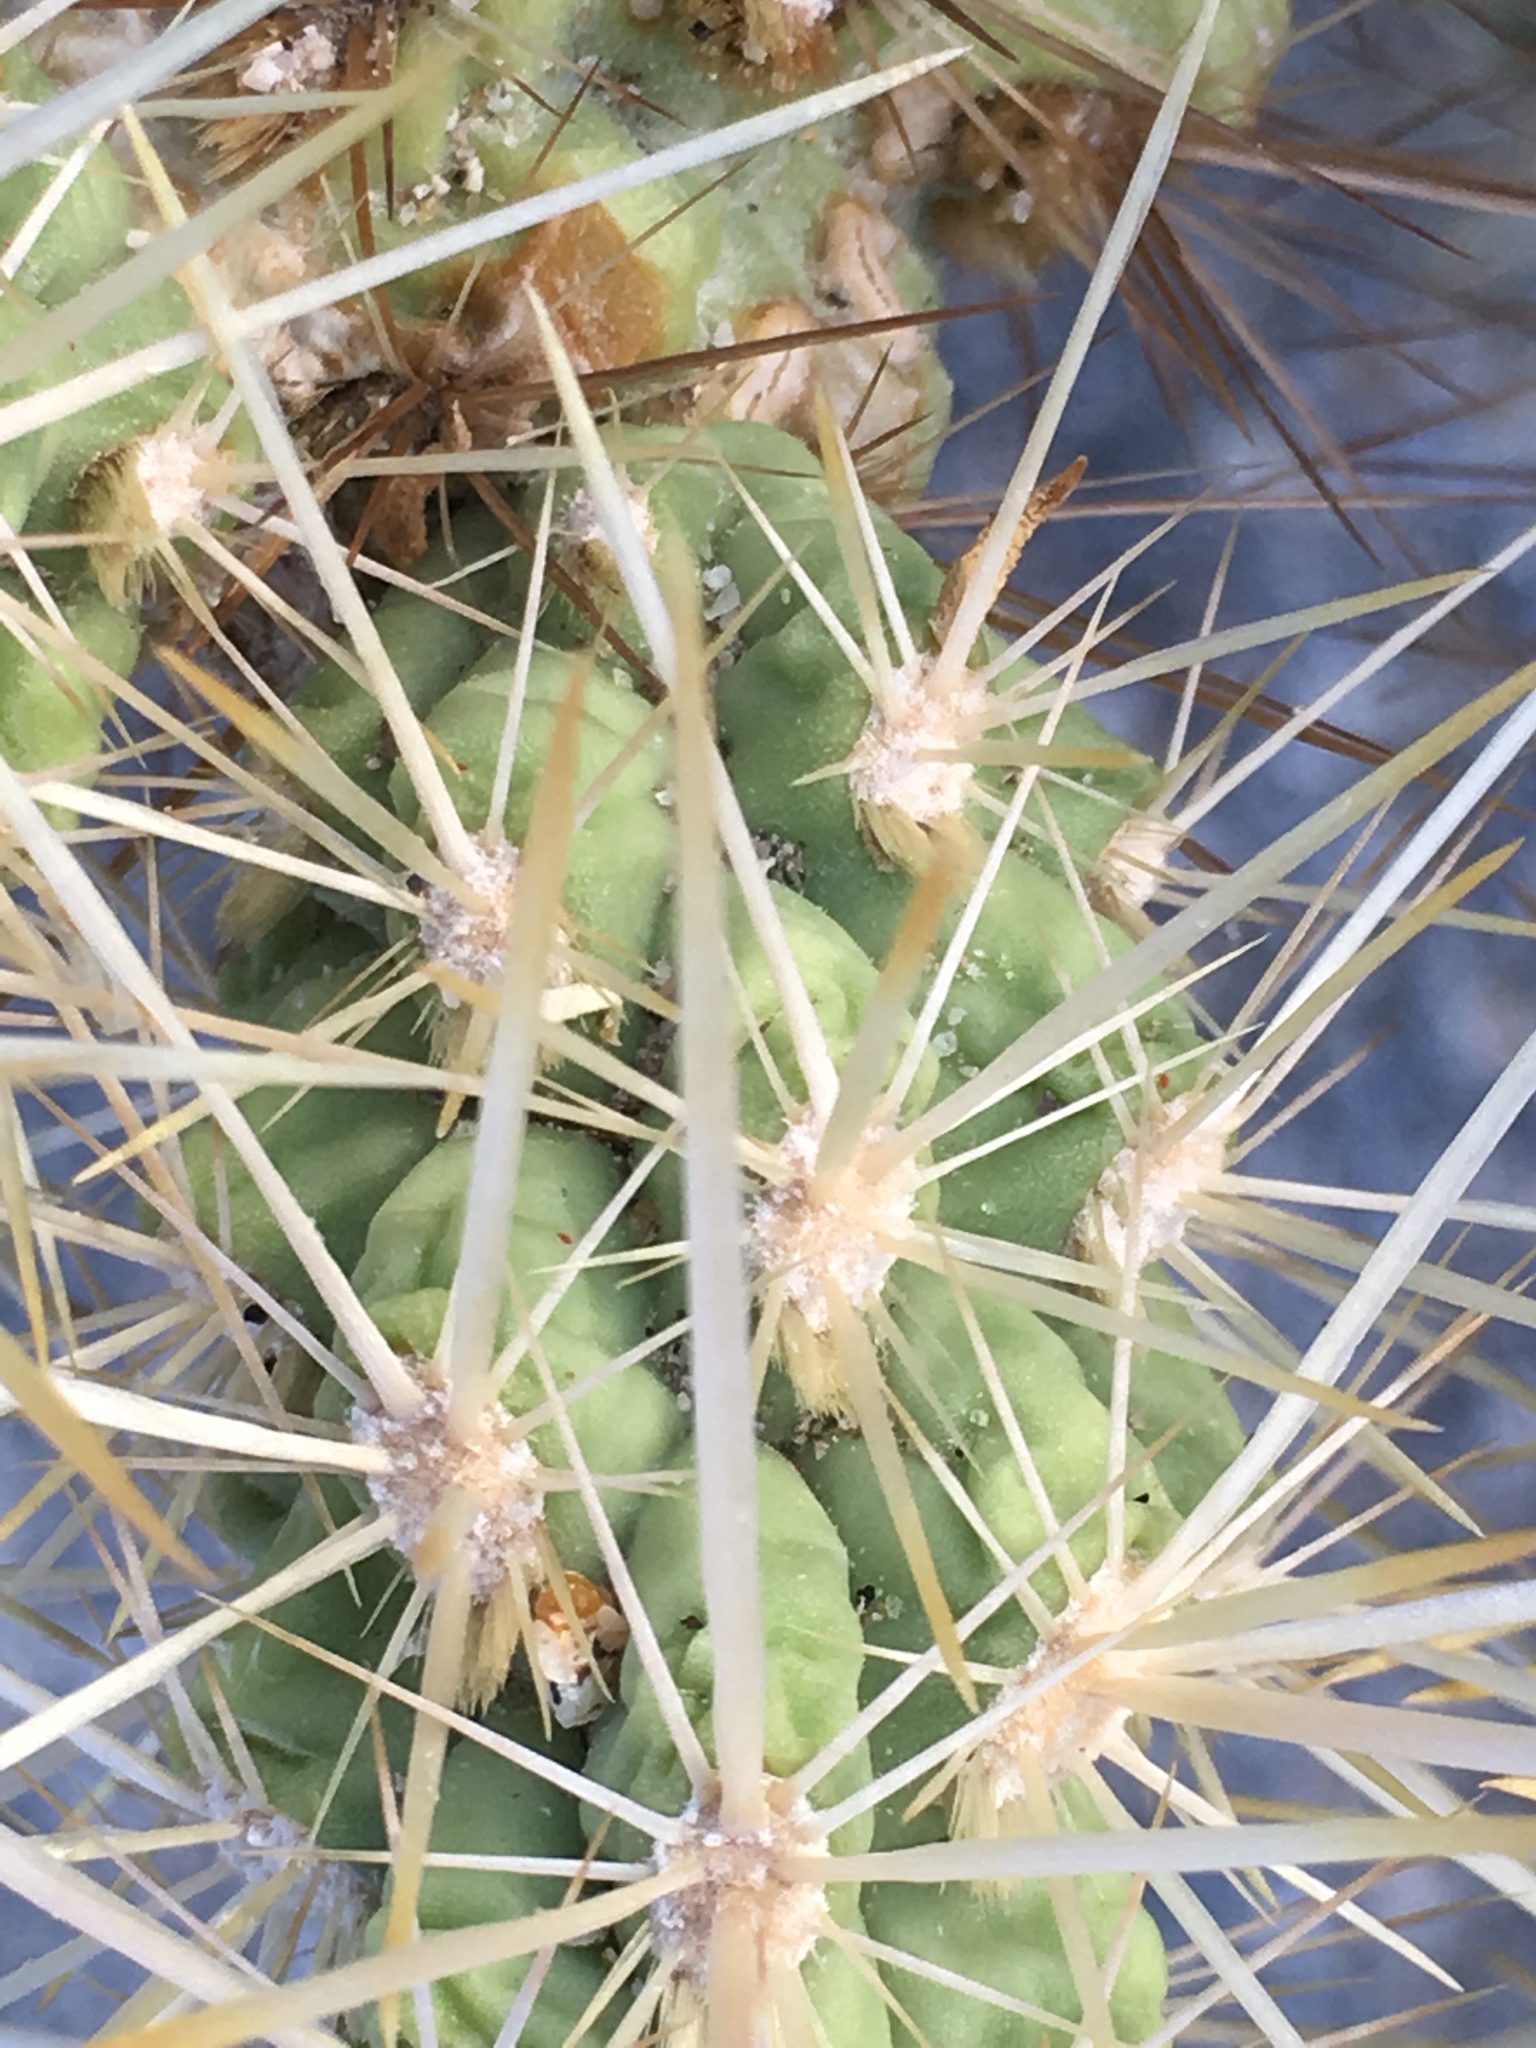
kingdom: Plantae
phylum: Tracheophyta
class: Magnoliopsida
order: Caryophyllales
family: Cactaceae
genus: Cylindropuntia
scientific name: Cylindropuntia echinocarpa
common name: Ground cholla
